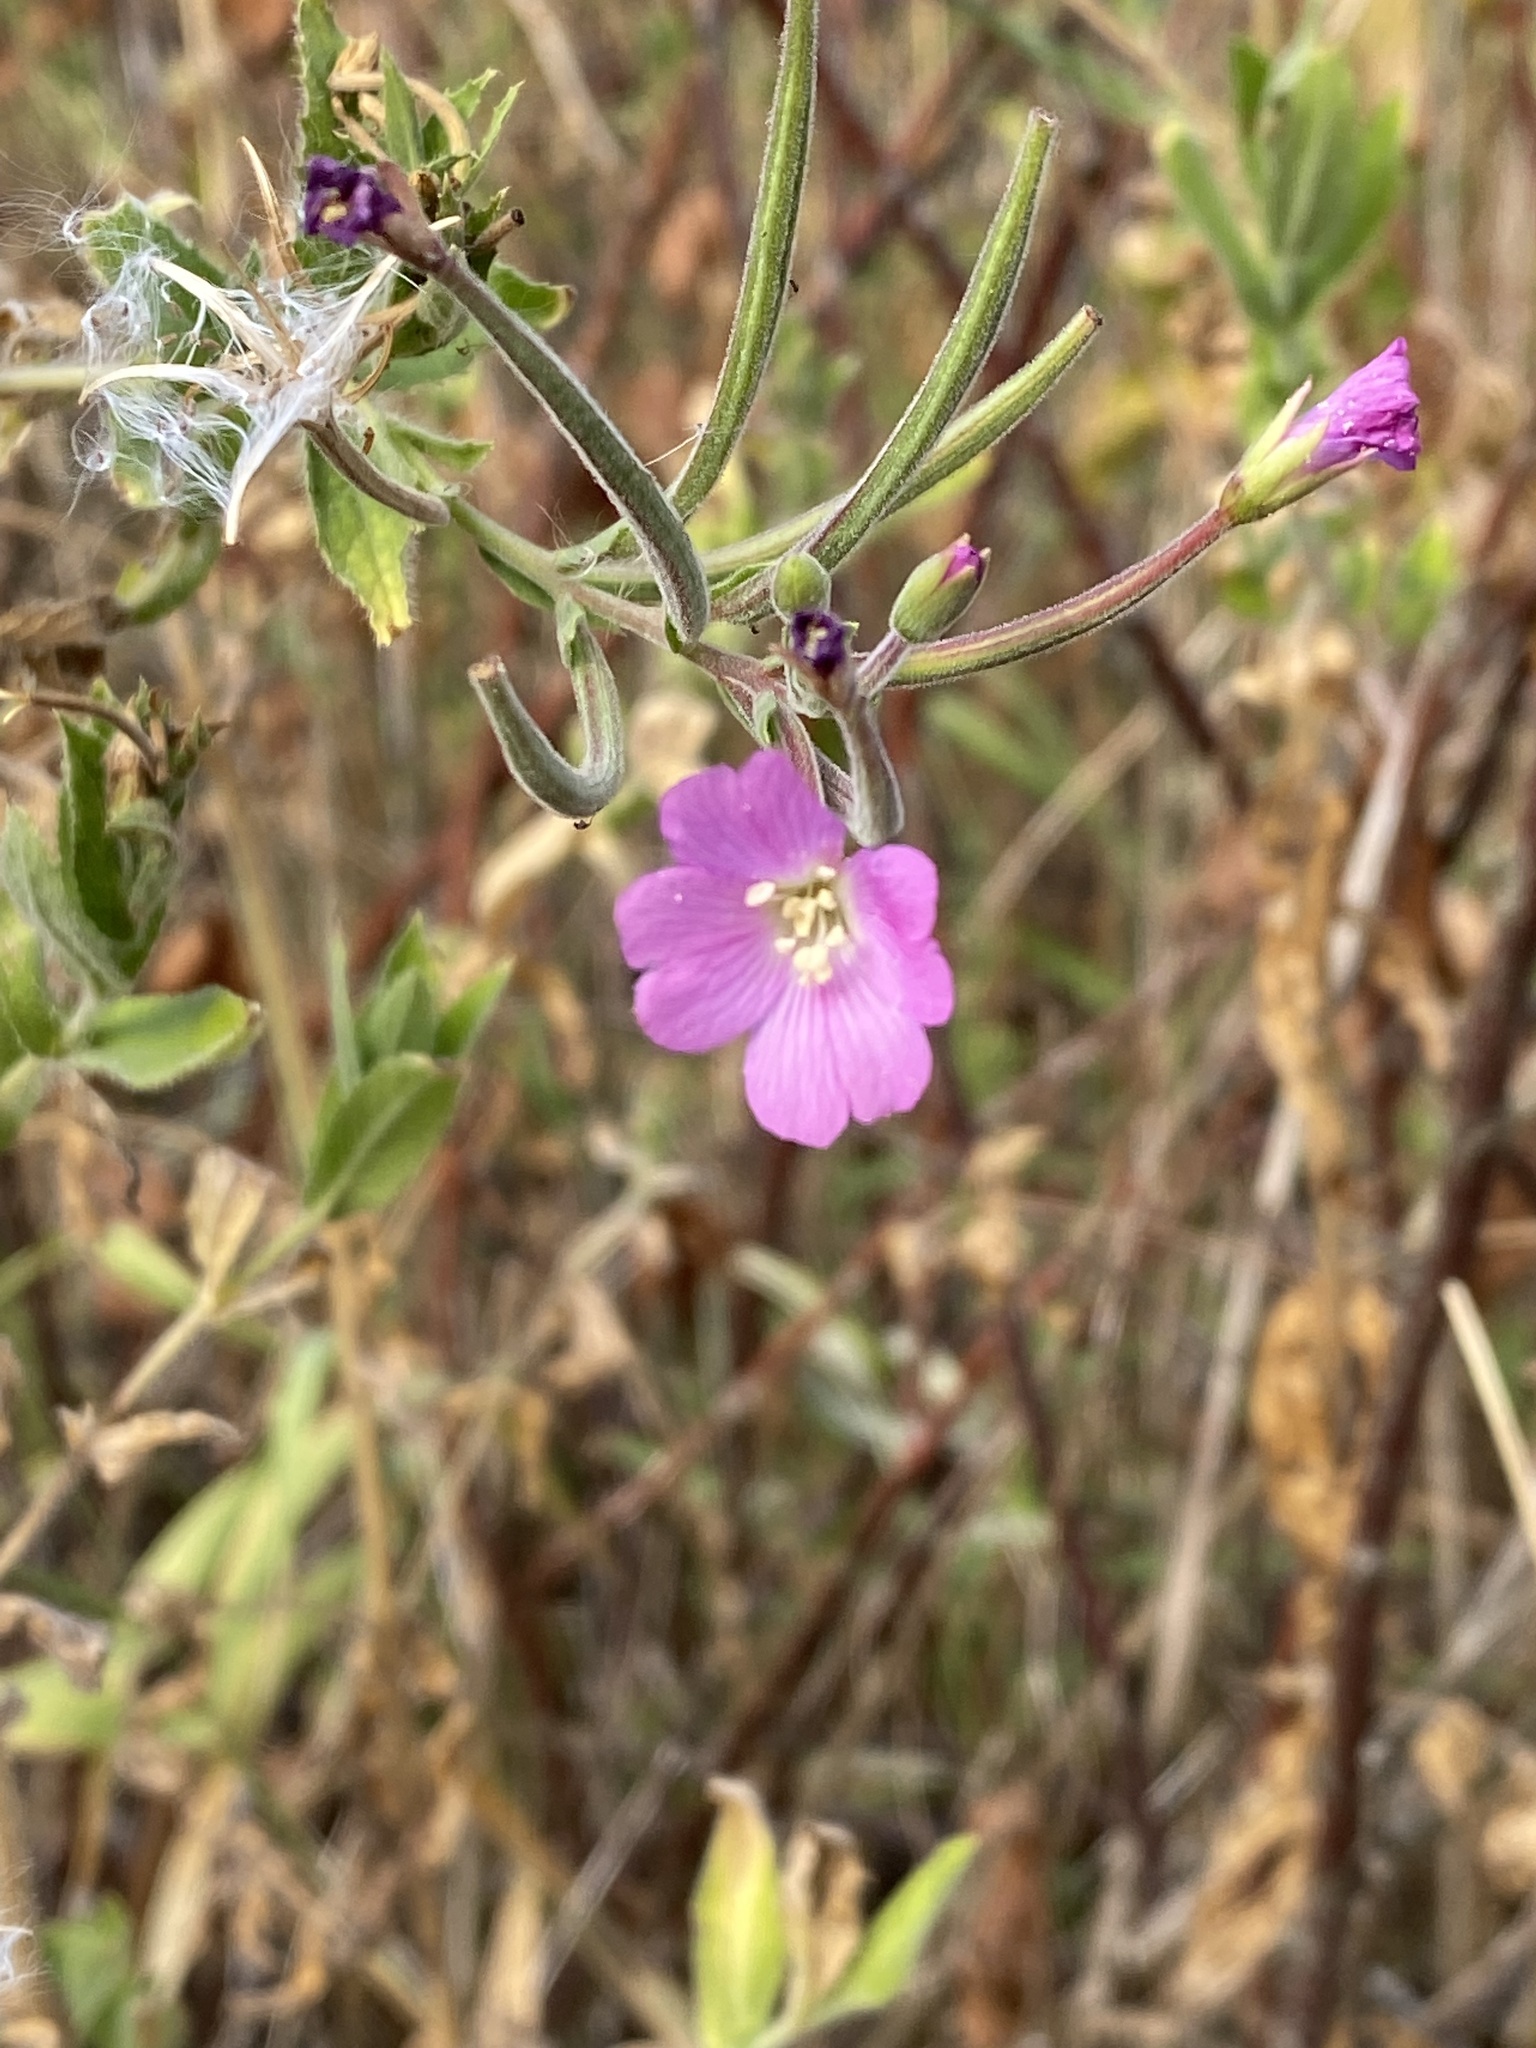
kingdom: Plantae
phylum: Tracheophyta
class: Magnoliopsida
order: Myrtales
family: Onagraceae
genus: Epilobium
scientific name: Epilobium hirsutum
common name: Great willowherb
